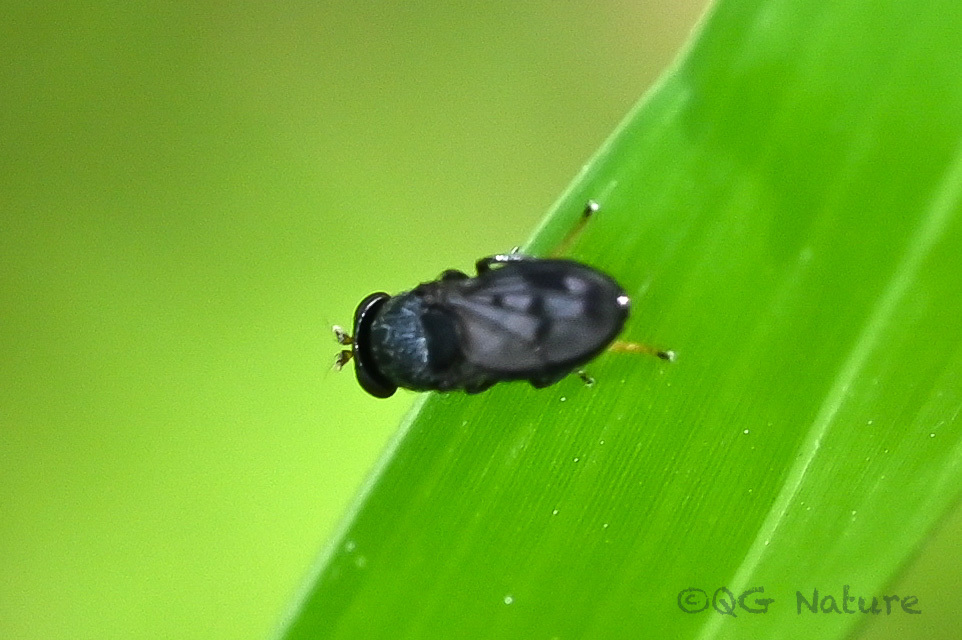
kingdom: Animalia
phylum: Arthropoda
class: Insecta
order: Diptera
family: Ephydridae
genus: Discomyza
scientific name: Discomyza maculipennis
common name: Shore fly
